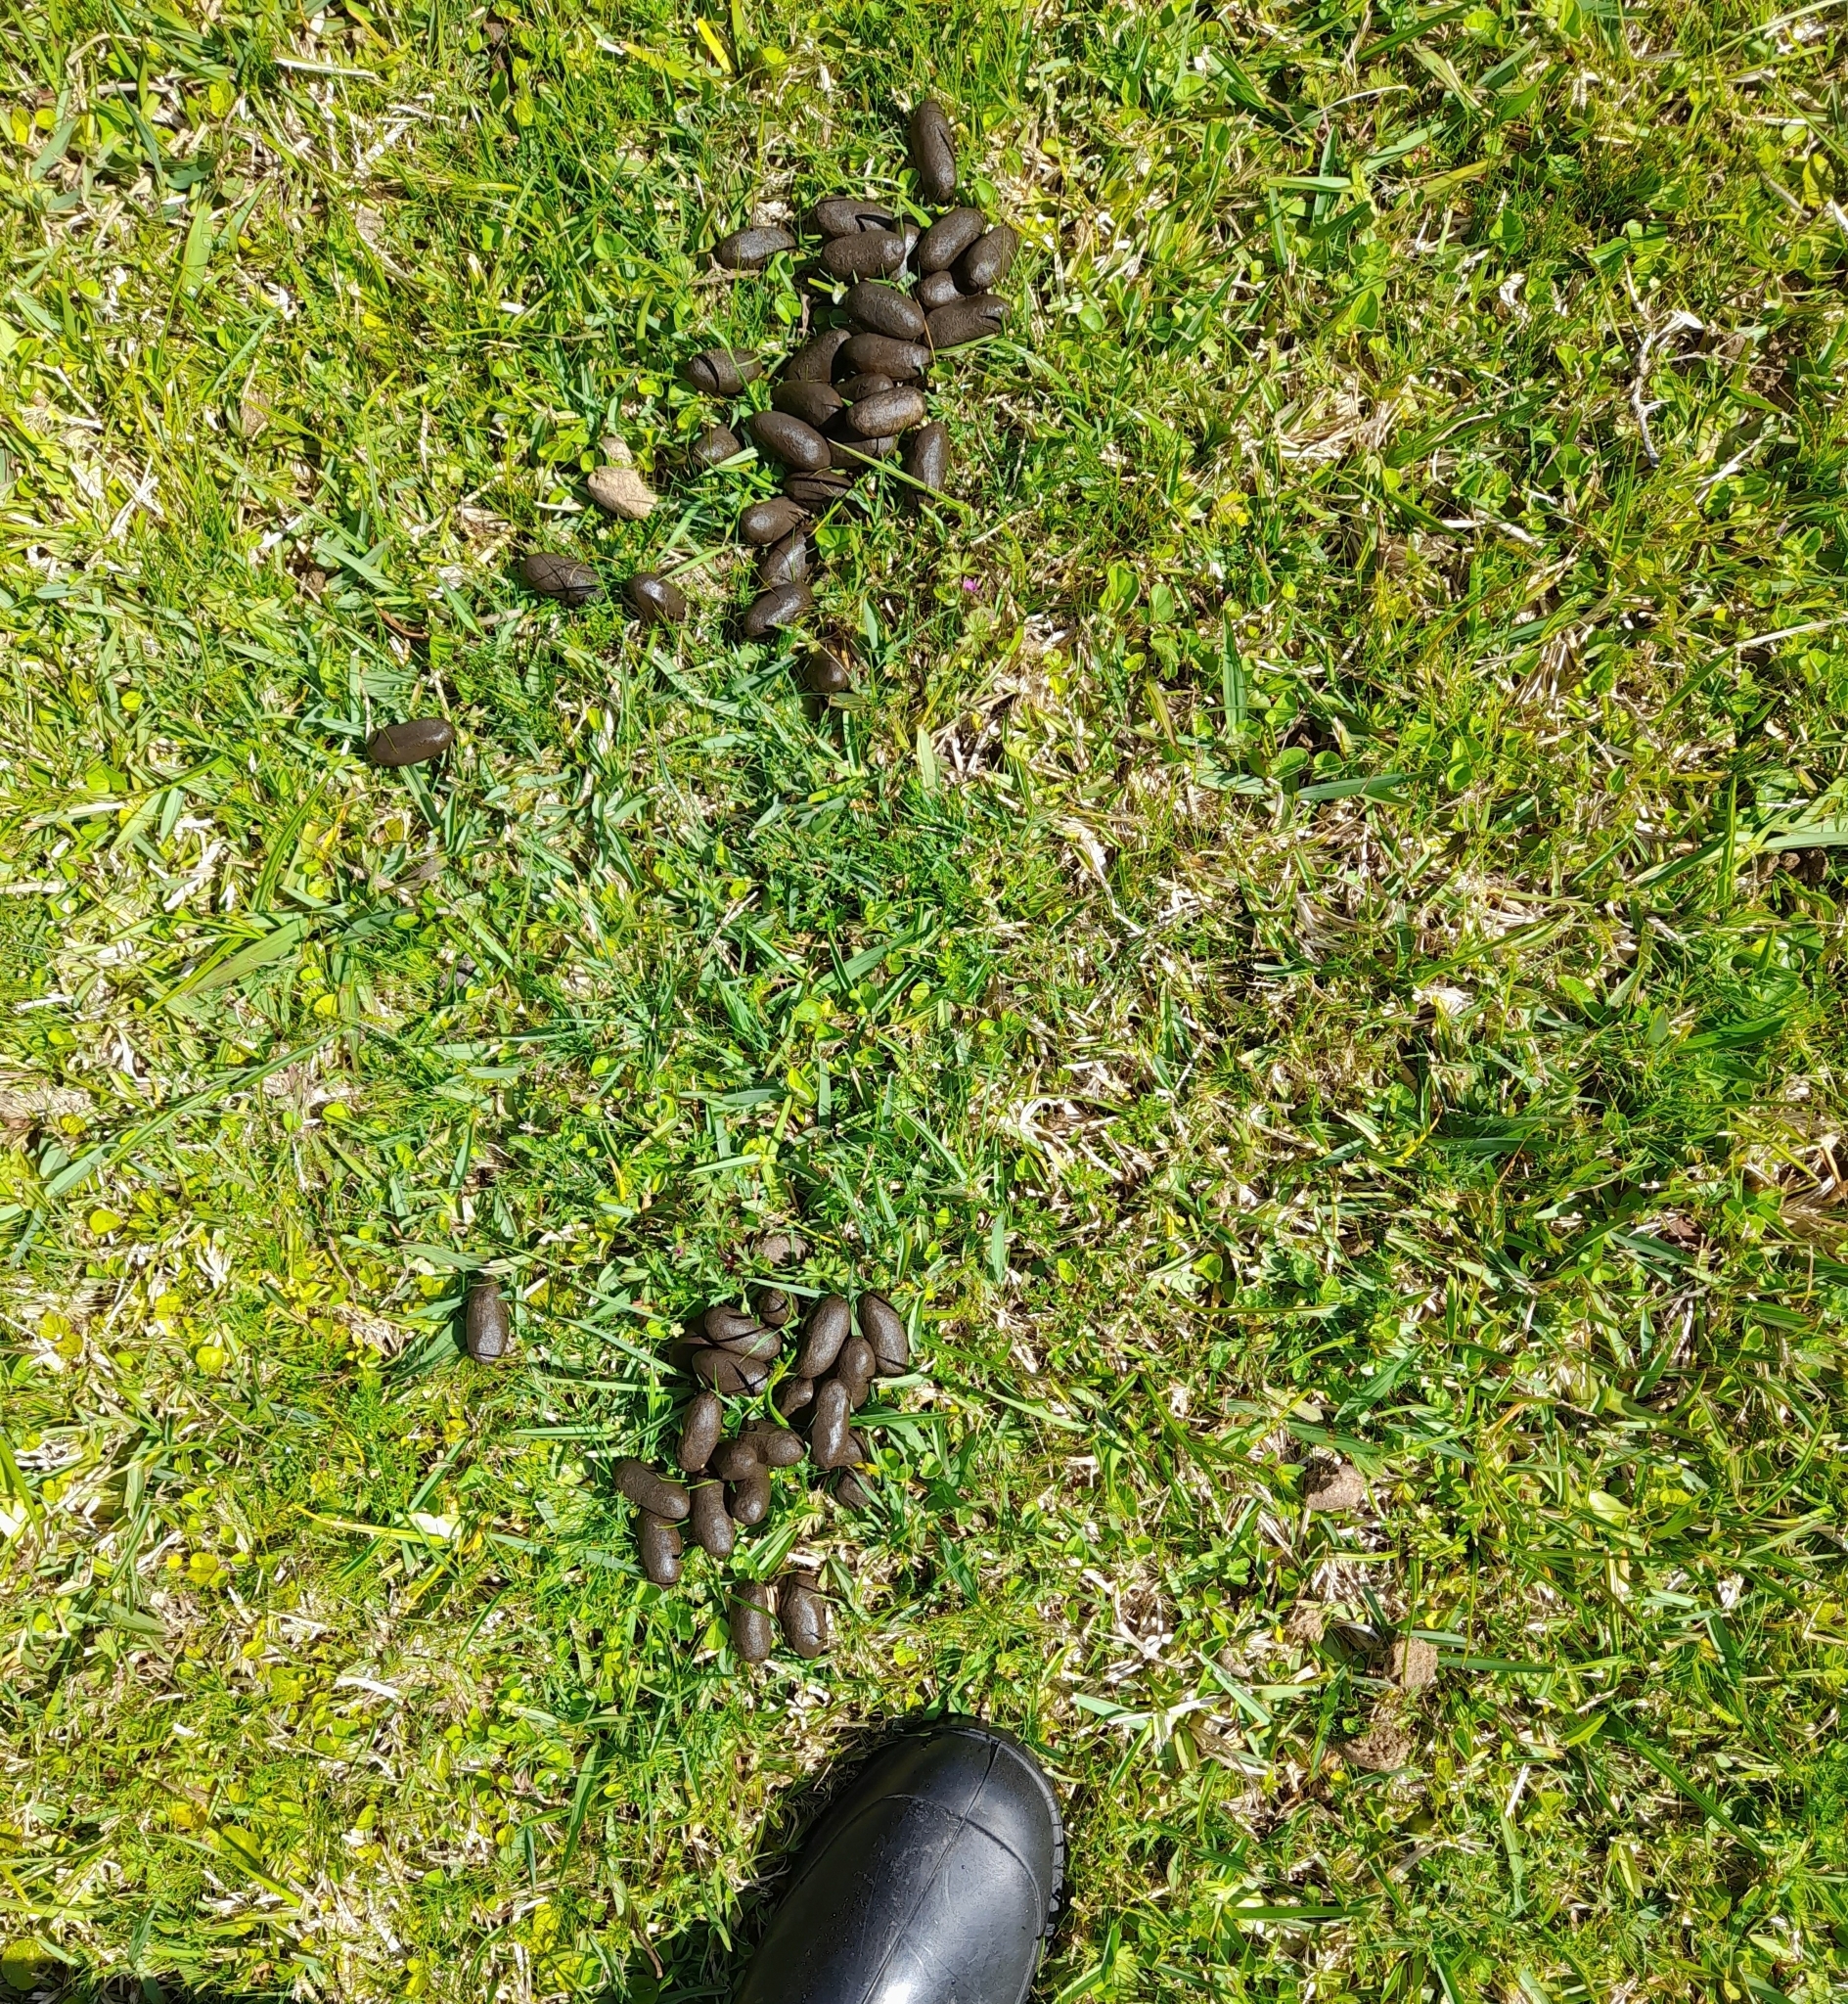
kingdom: Animalia
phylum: Chordata
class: Mammalia
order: Rodentia
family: Caviidae
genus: Hydrochoerus
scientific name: Hydrochoerus hydrochaeris
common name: Capybara
